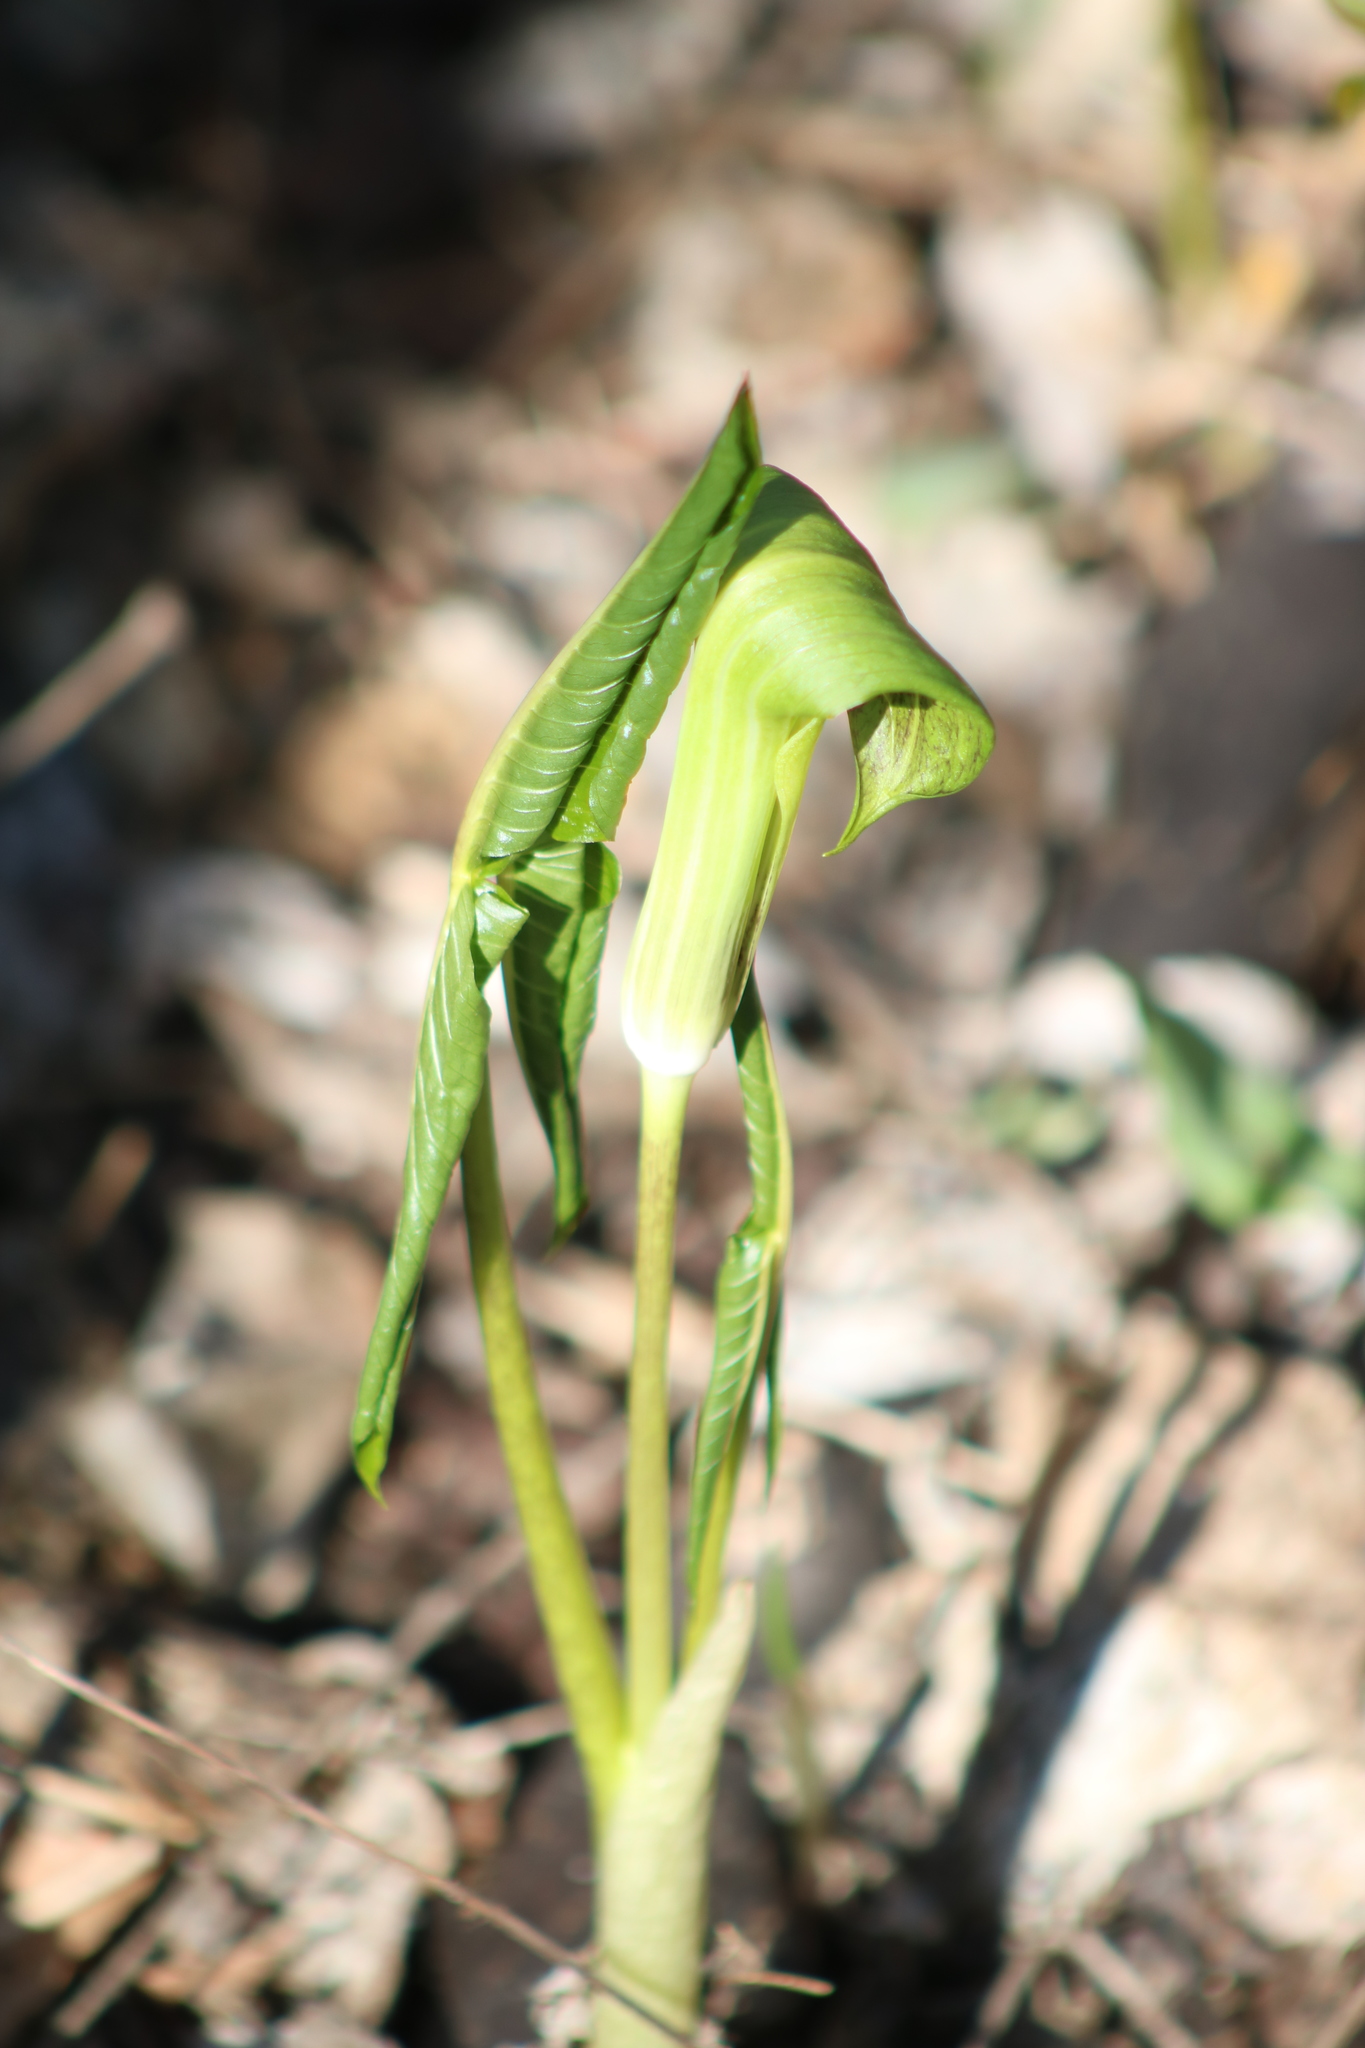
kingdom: Plantae
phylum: Tracheophyta
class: Liliopsida
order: Alismatales
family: Araceae
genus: Arisaema
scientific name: Arisaema triphyllum
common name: Jack-in-the-pulpit
